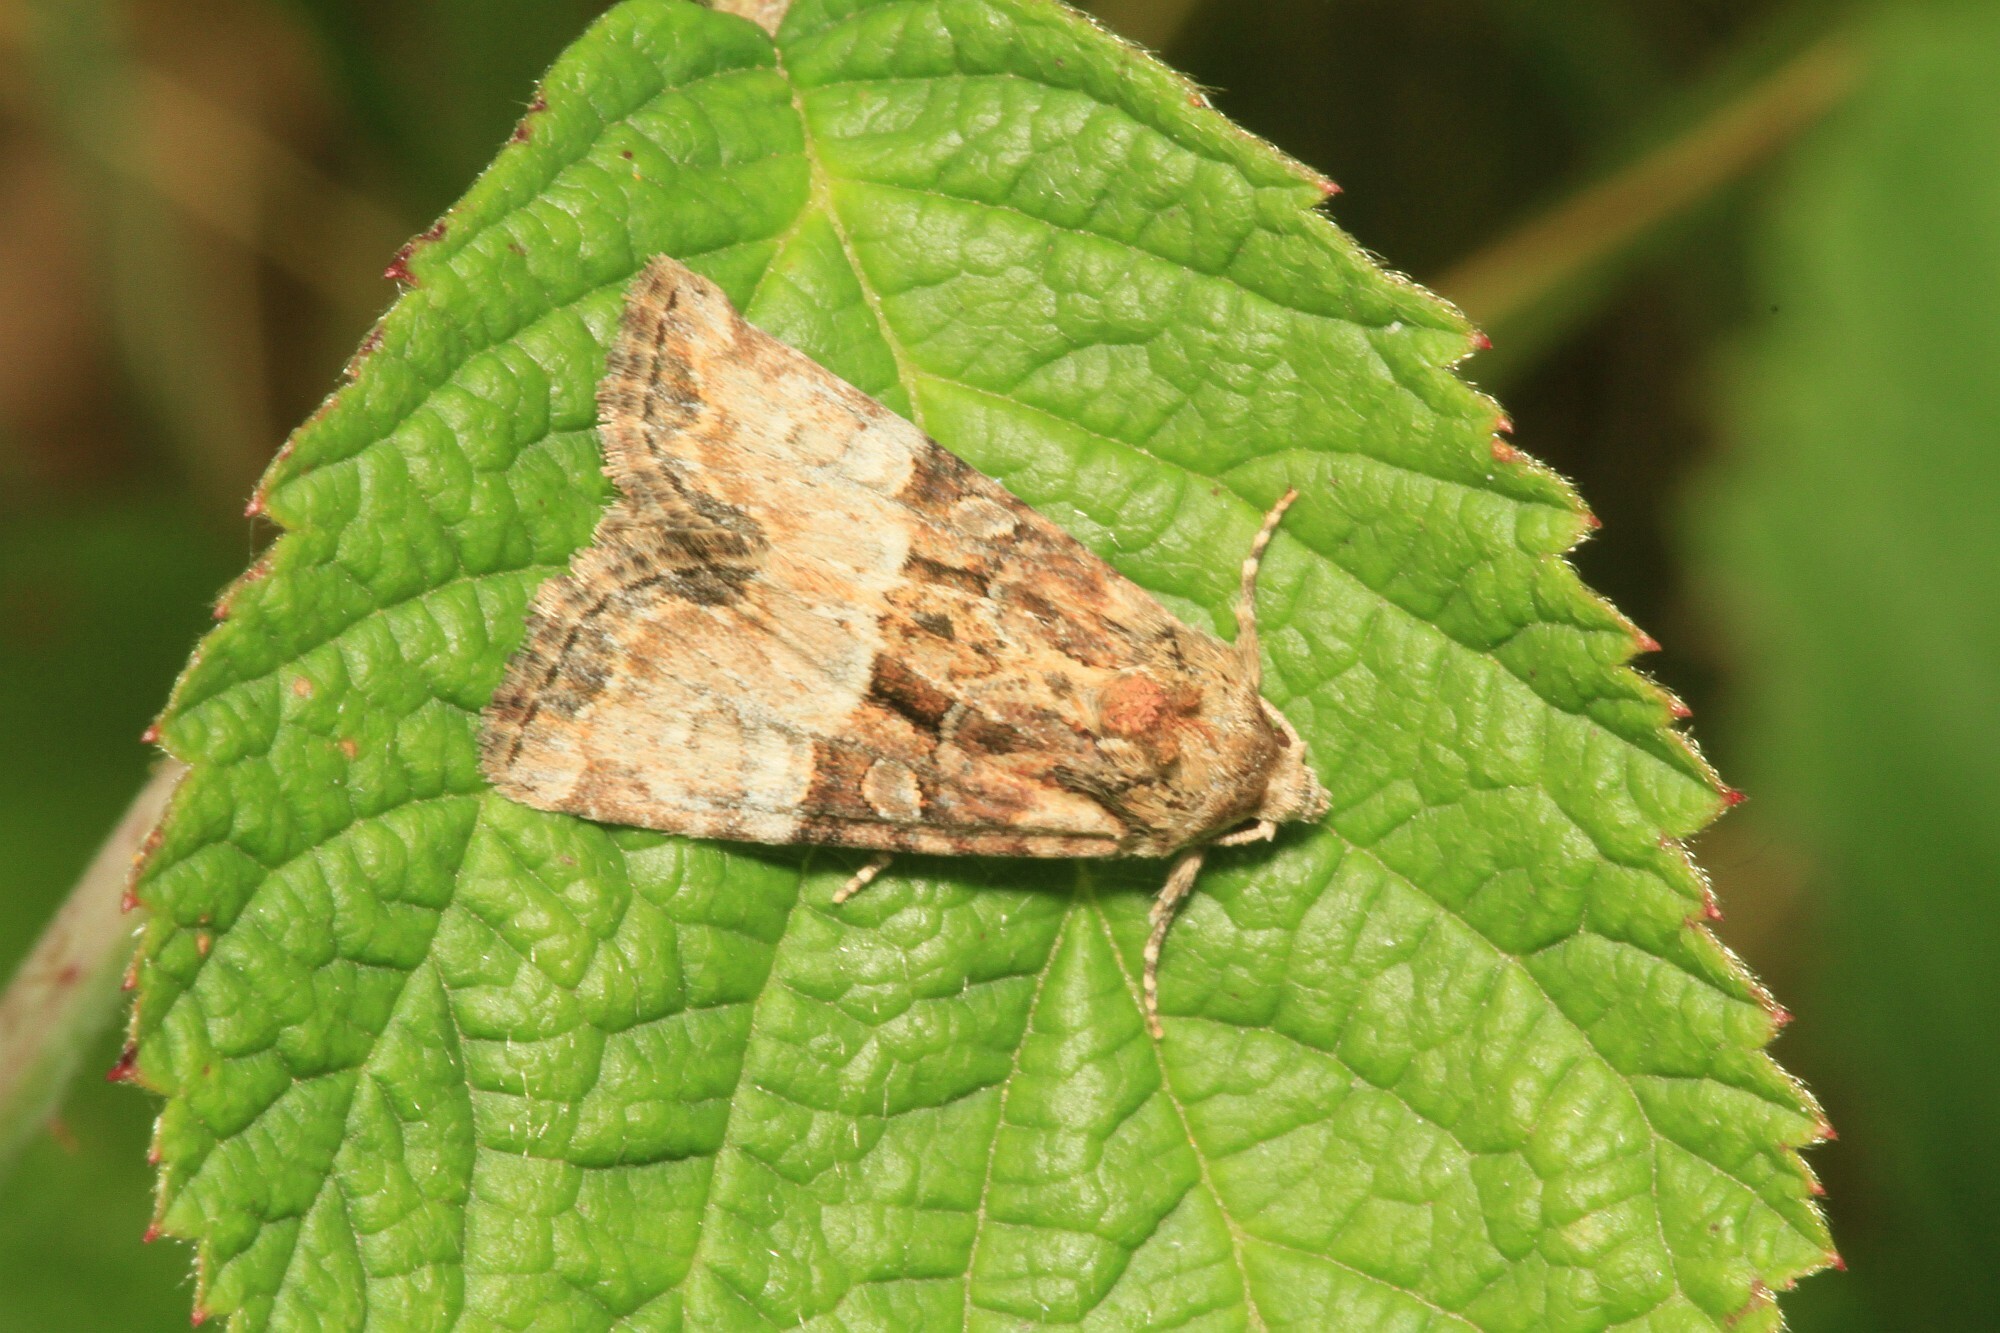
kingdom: Animalia
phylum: Arthropoda
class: Insecta
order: Lepidoptera
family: Noctuidae
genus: Mesoligia
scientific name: Mesoligia furuncula
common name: Cloaked minor
